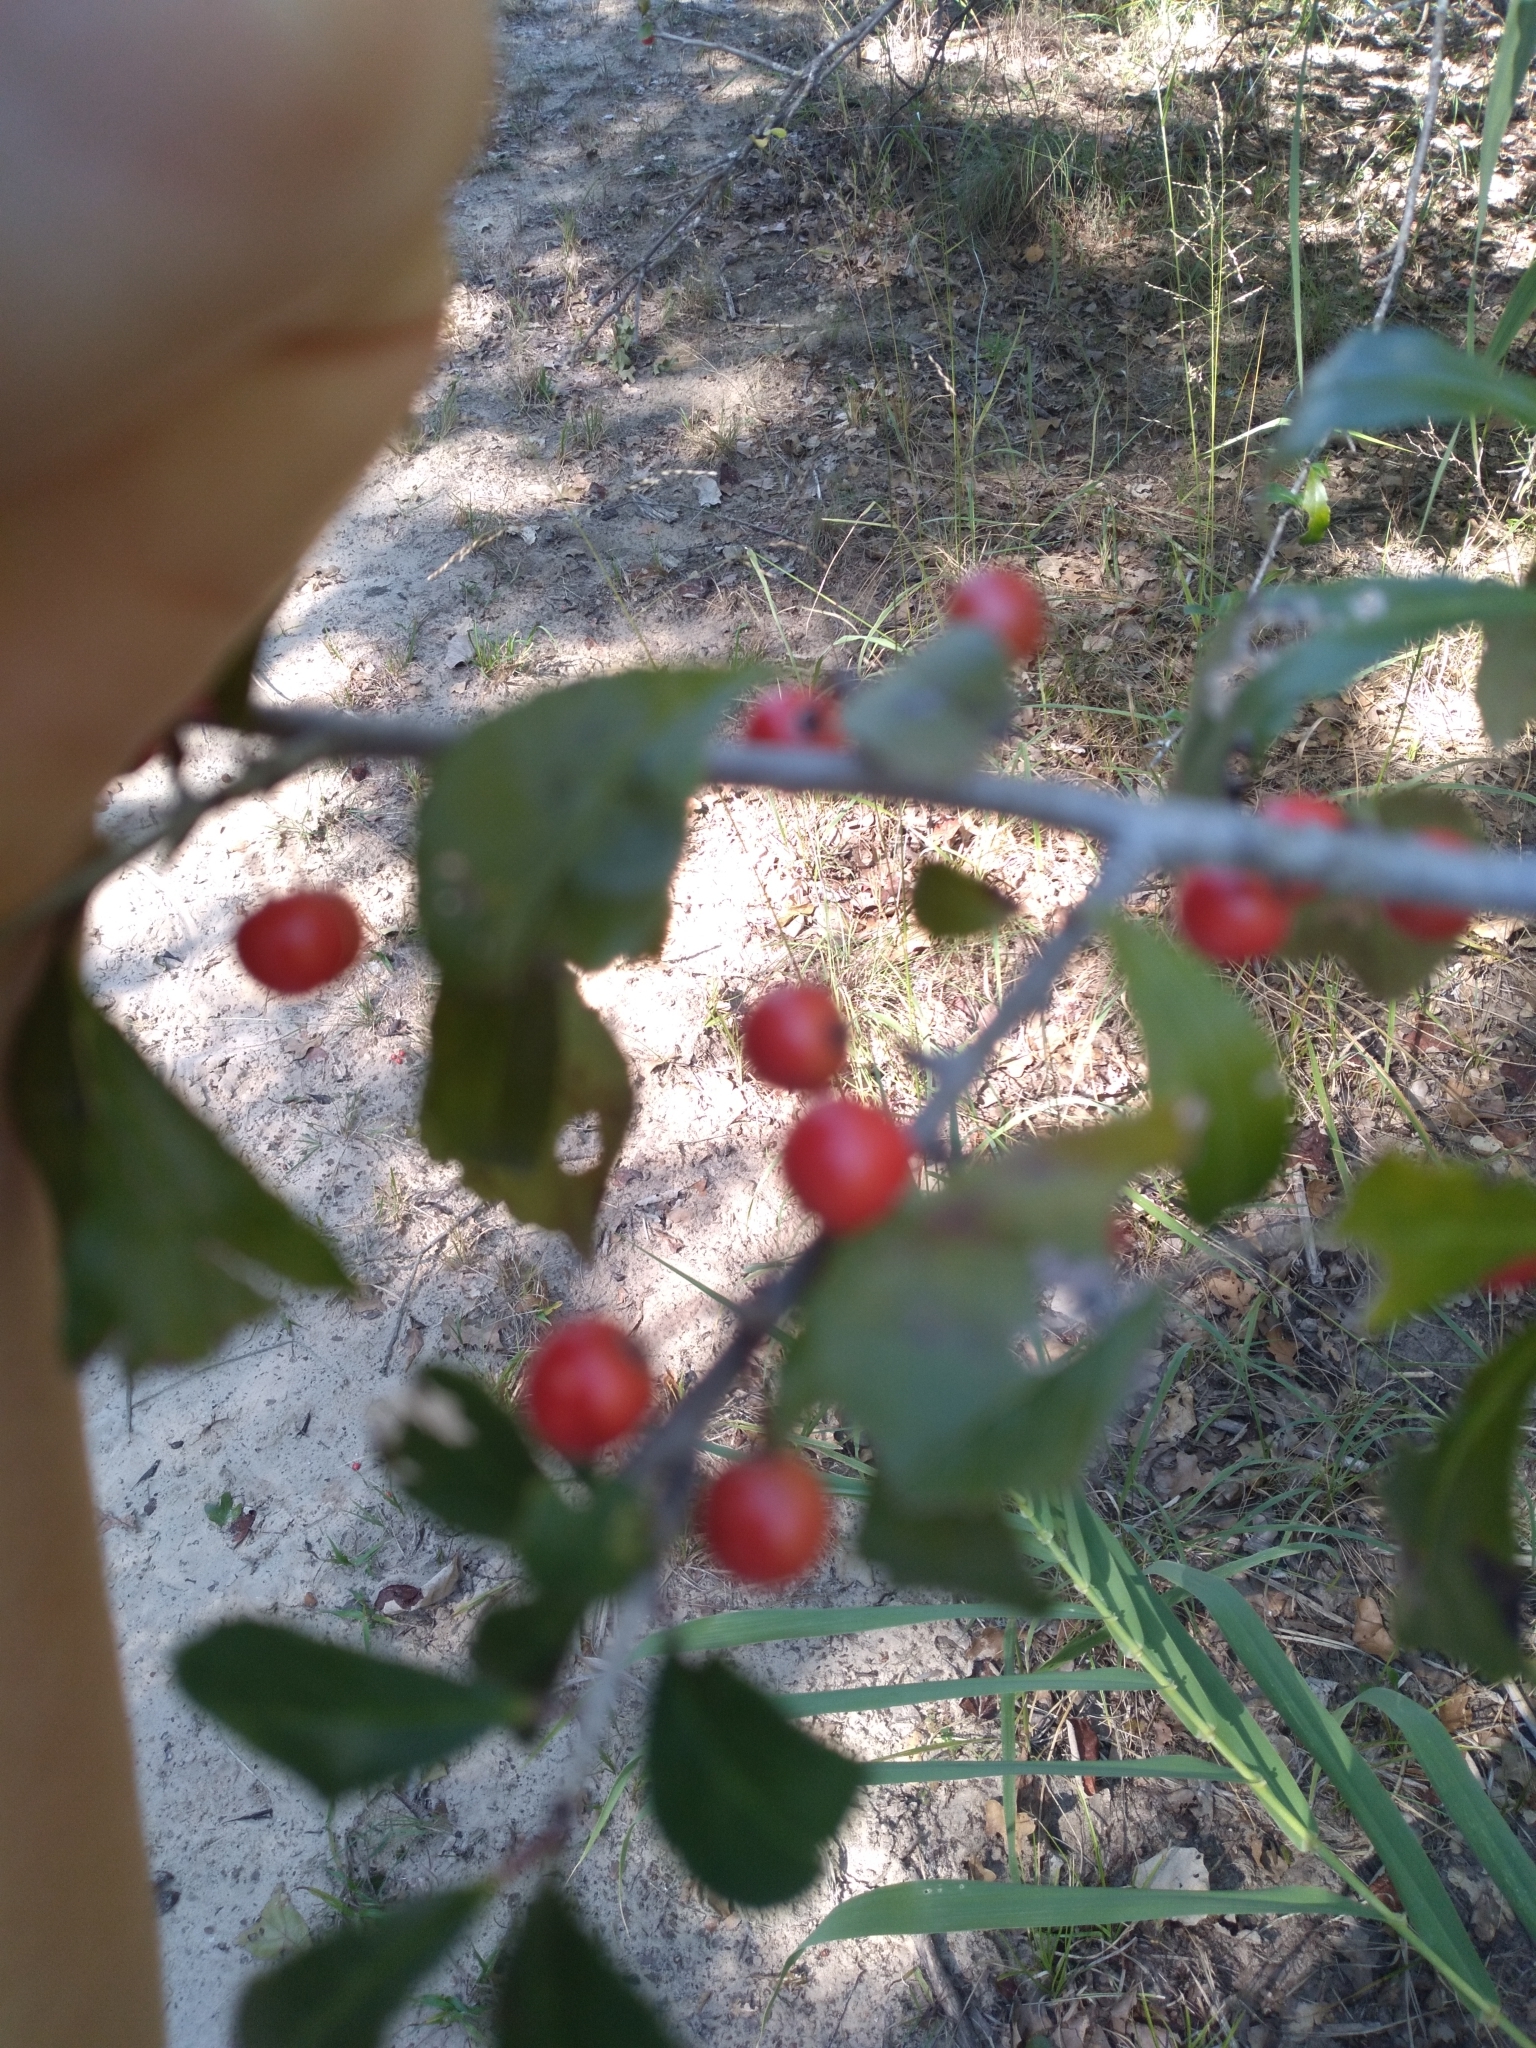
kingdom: Plantae
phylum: Tracheophyta
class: Magnoliopsida
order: Aquifoliales
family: Aquifoliaceae
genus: Ilex
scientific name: Ilex decidua
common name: Possum-haw
